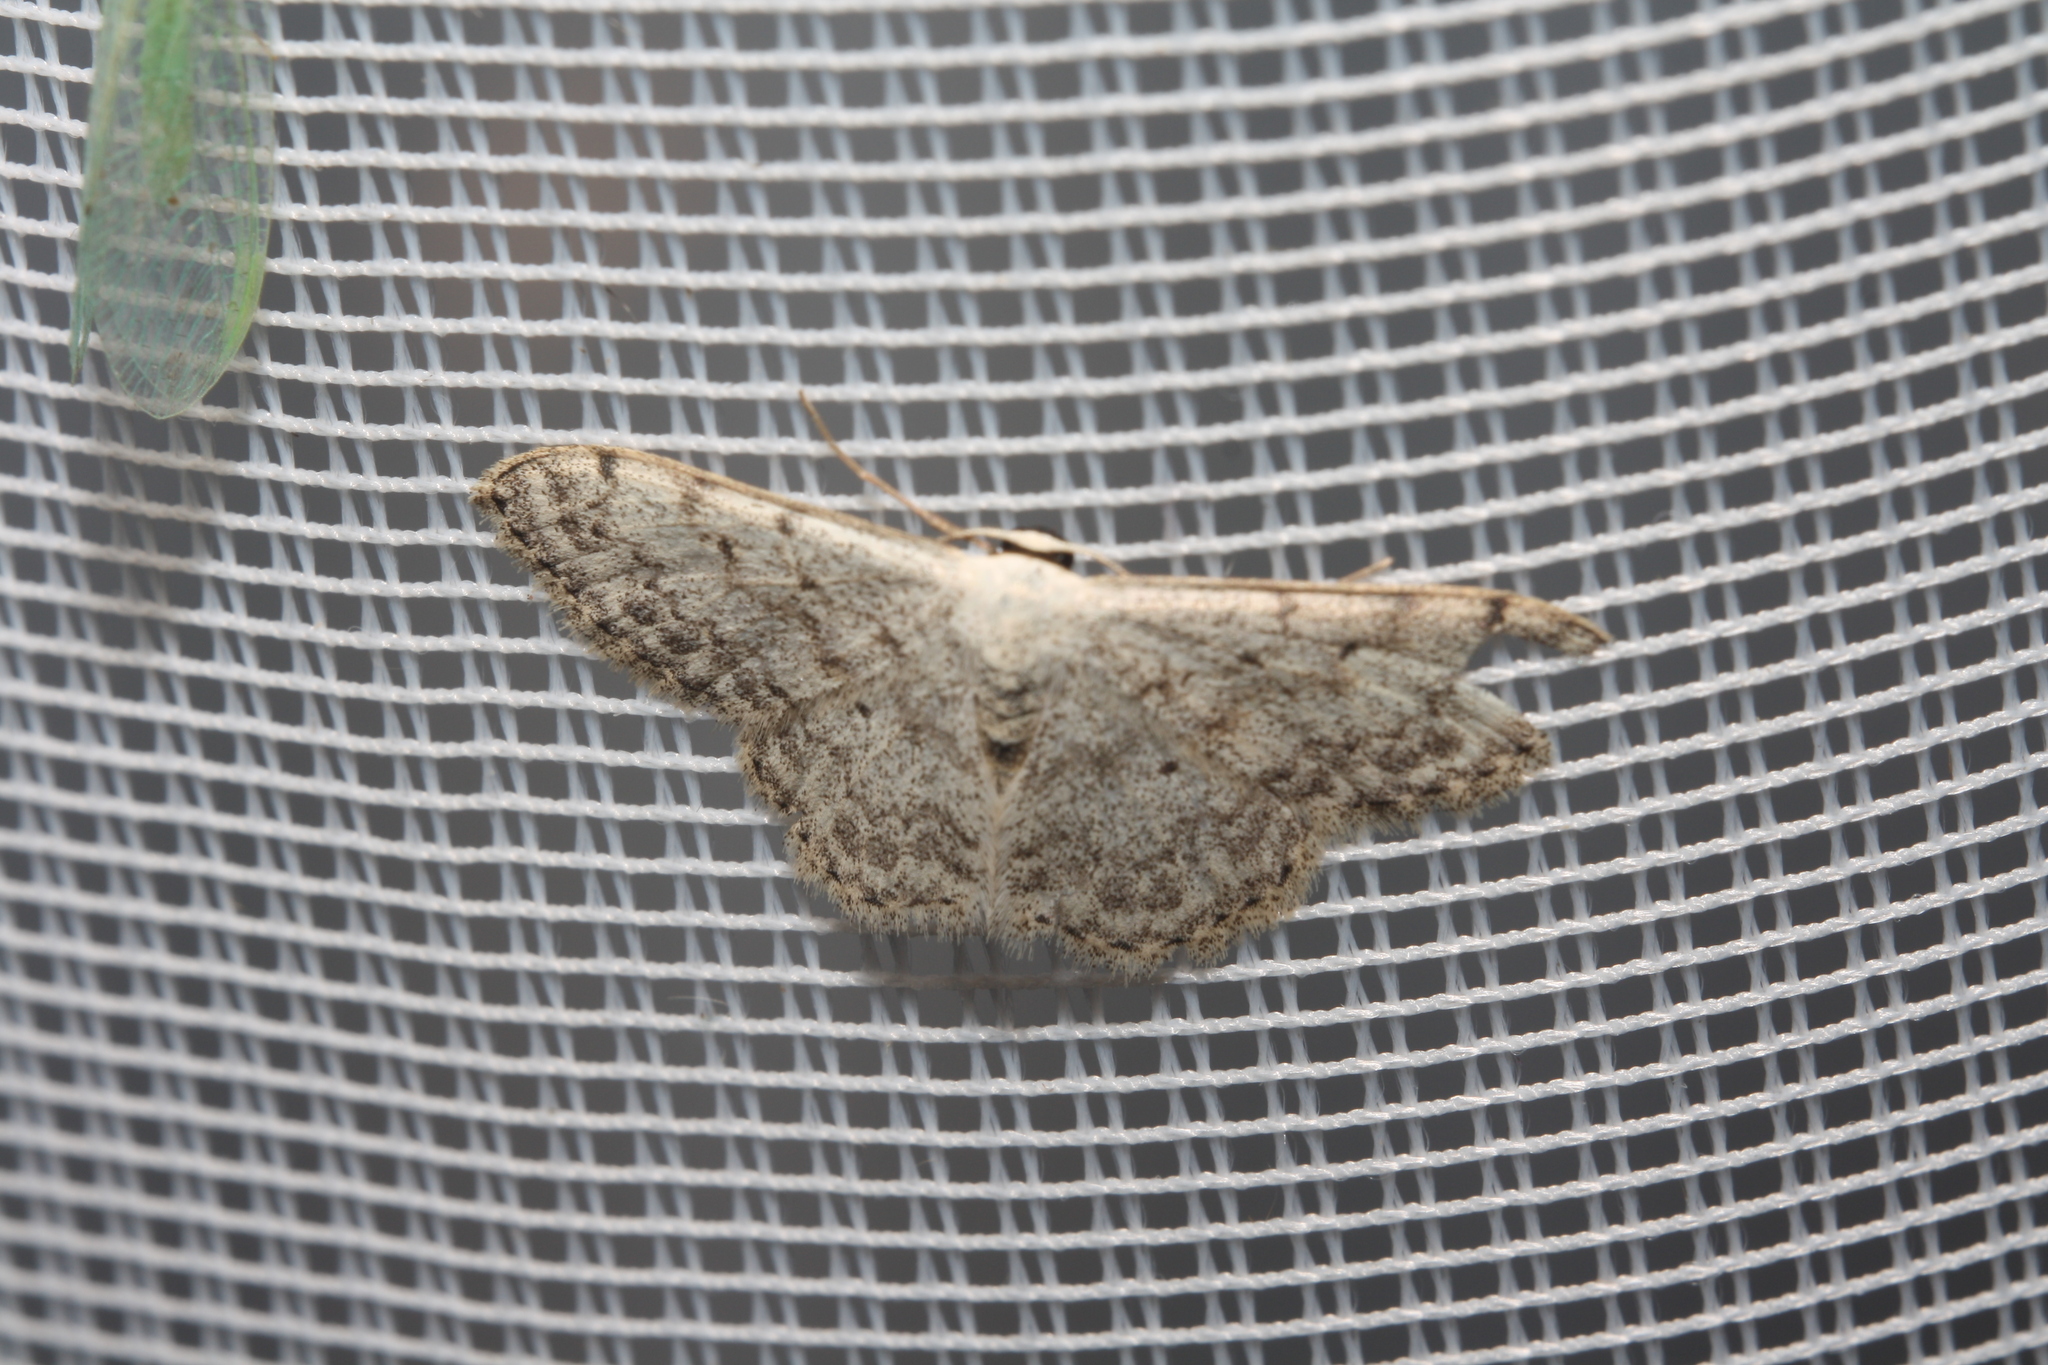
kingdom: Animalia
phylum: Arthropoda
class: Insecta
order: Lepidoptera
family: Geometridae
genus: Scopula
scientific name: Scopula marginepunctata
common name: Mullein wave
